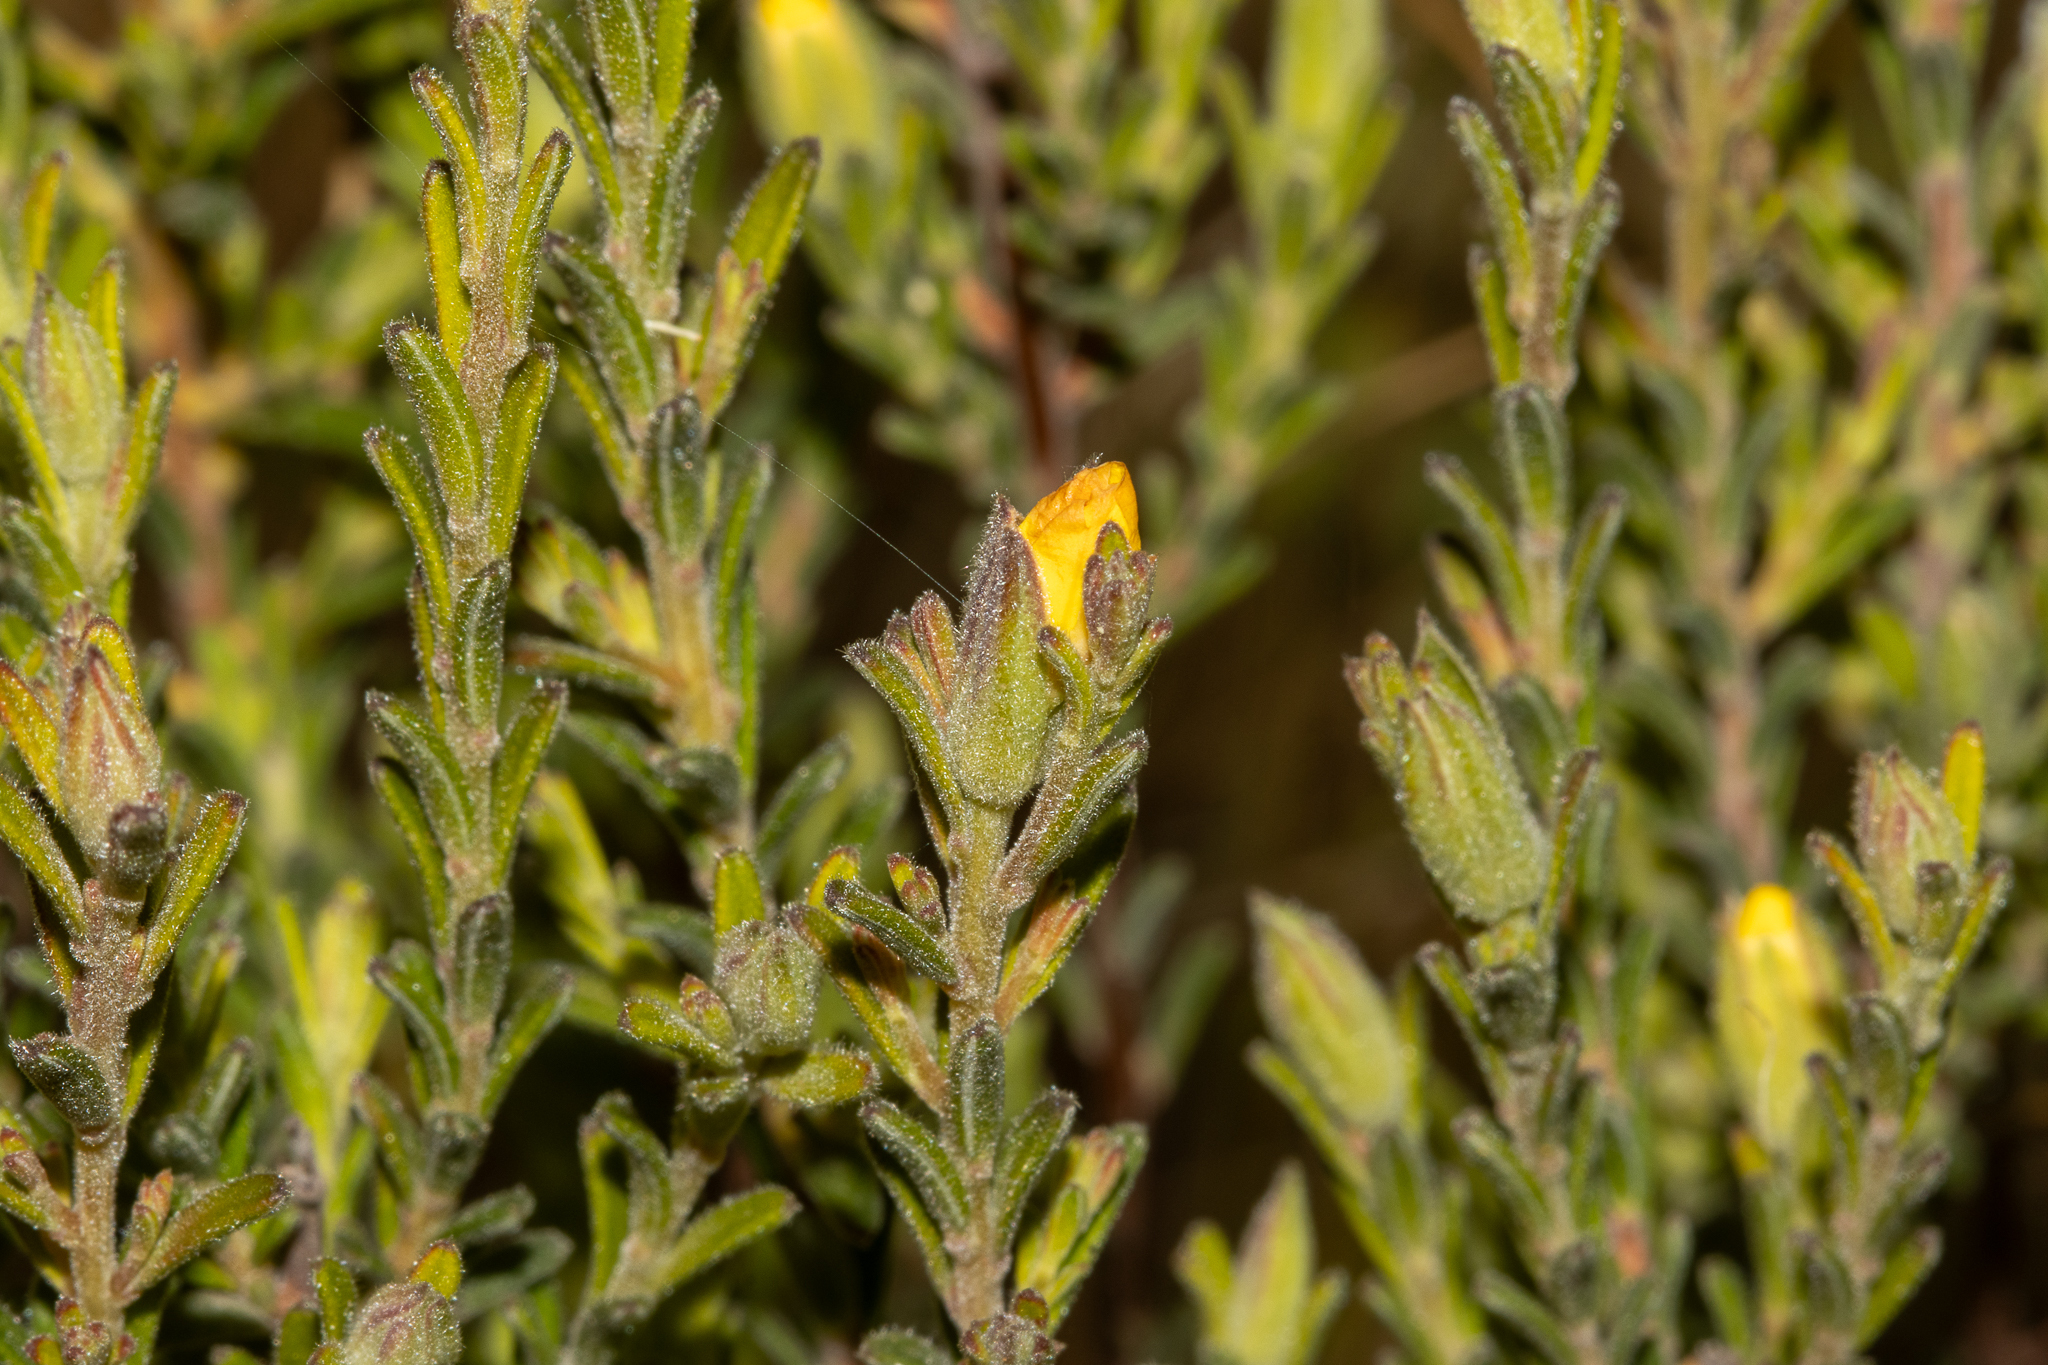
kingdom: Plantae
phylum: Tracheophyta
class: Magnoliopsida
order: Dilleniales
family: Dilleniaceae
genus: Hibbertia
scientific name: Hibbertia setifera
